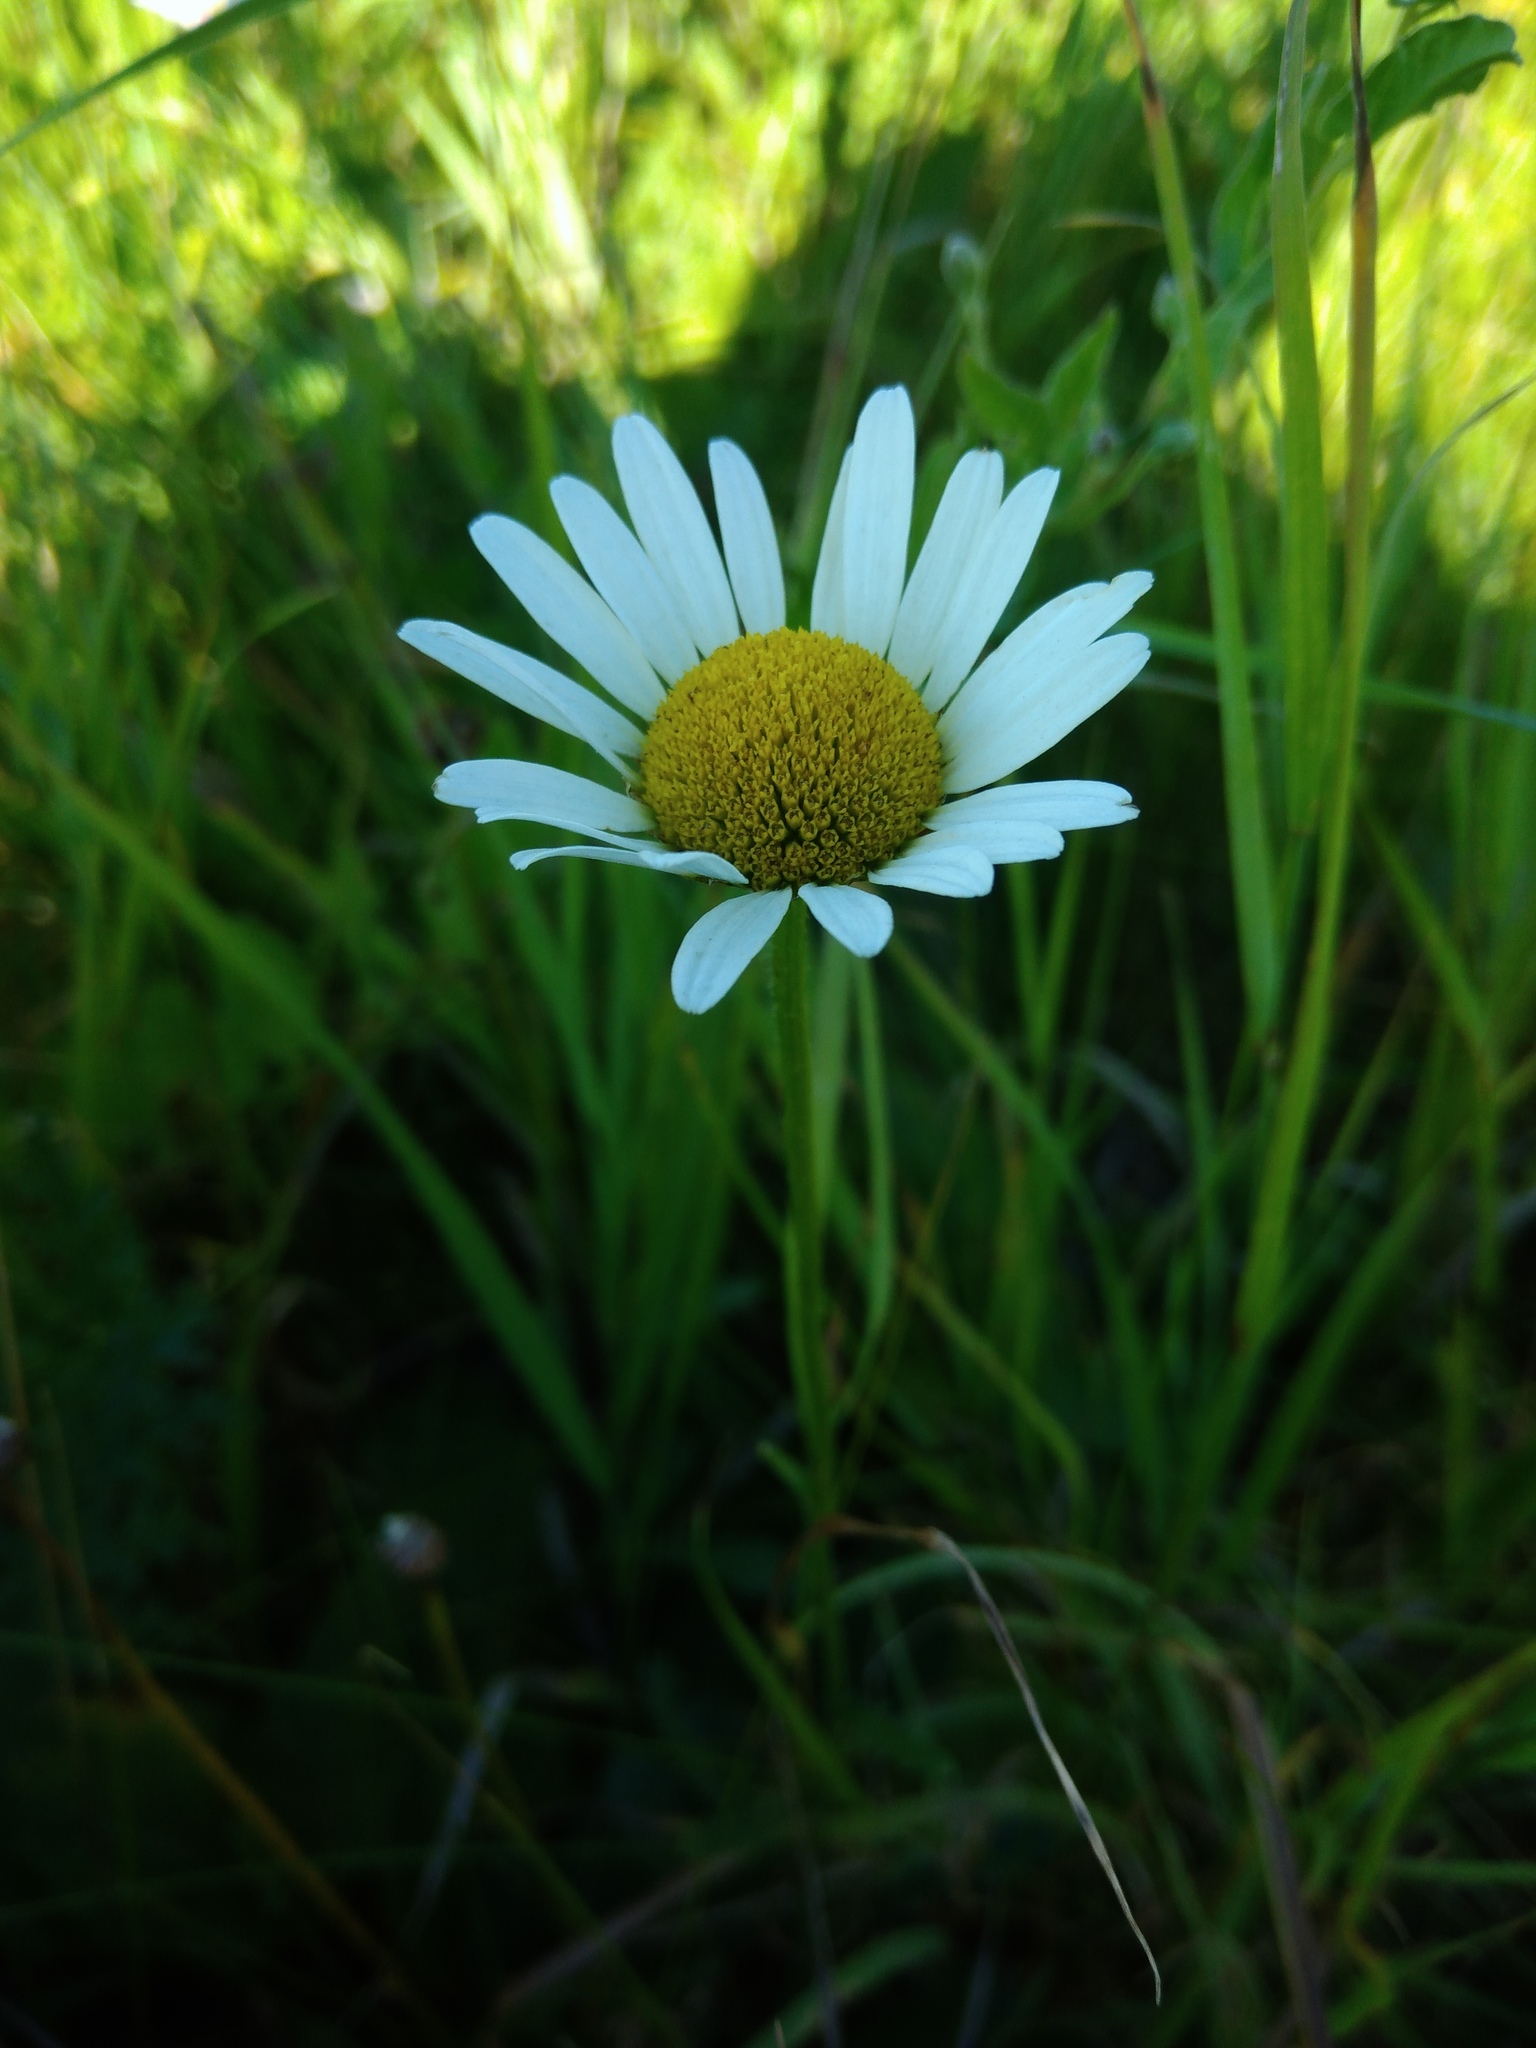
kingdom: Plantae
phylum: Tracheophyta
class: Magnoliopsida
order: Asterales
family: Asteraceae
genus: Leucanthemum
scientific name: Leucanthemum vulgare
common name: Oxeye daisy
